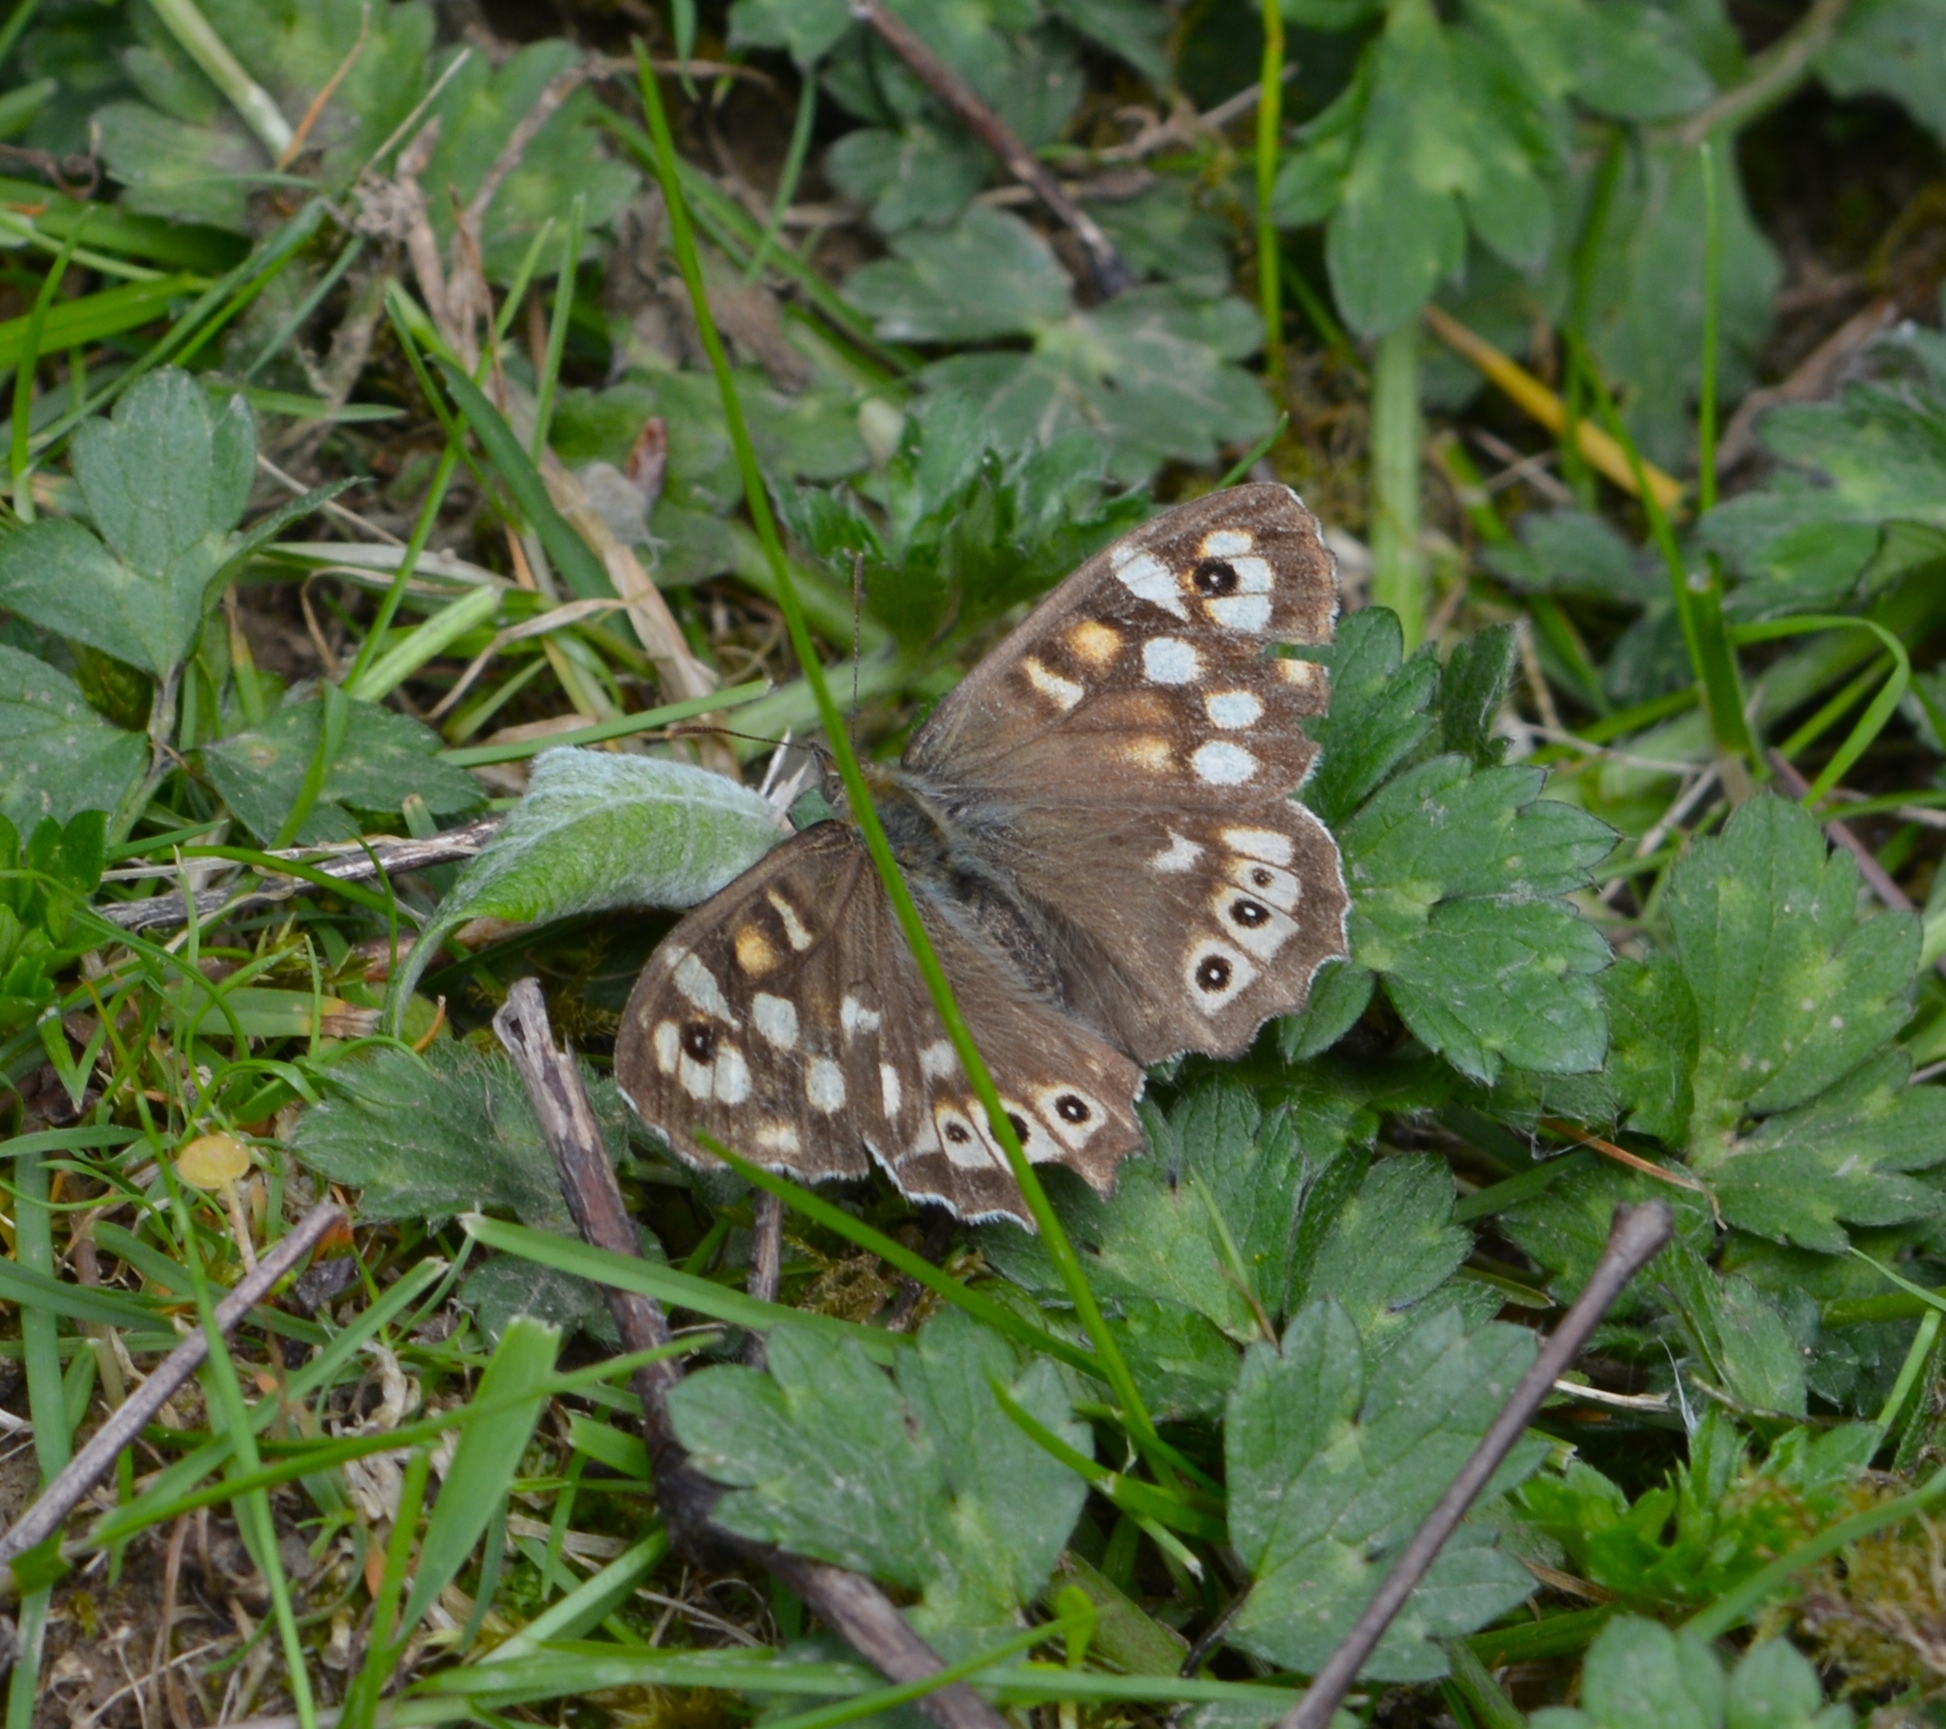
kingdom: Animalia
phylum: Arthropoda
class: Insecta
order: Lepidoptera
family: Nymphalidae
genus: Pararge
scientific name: Pararge aegeria
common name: Speckled wood
